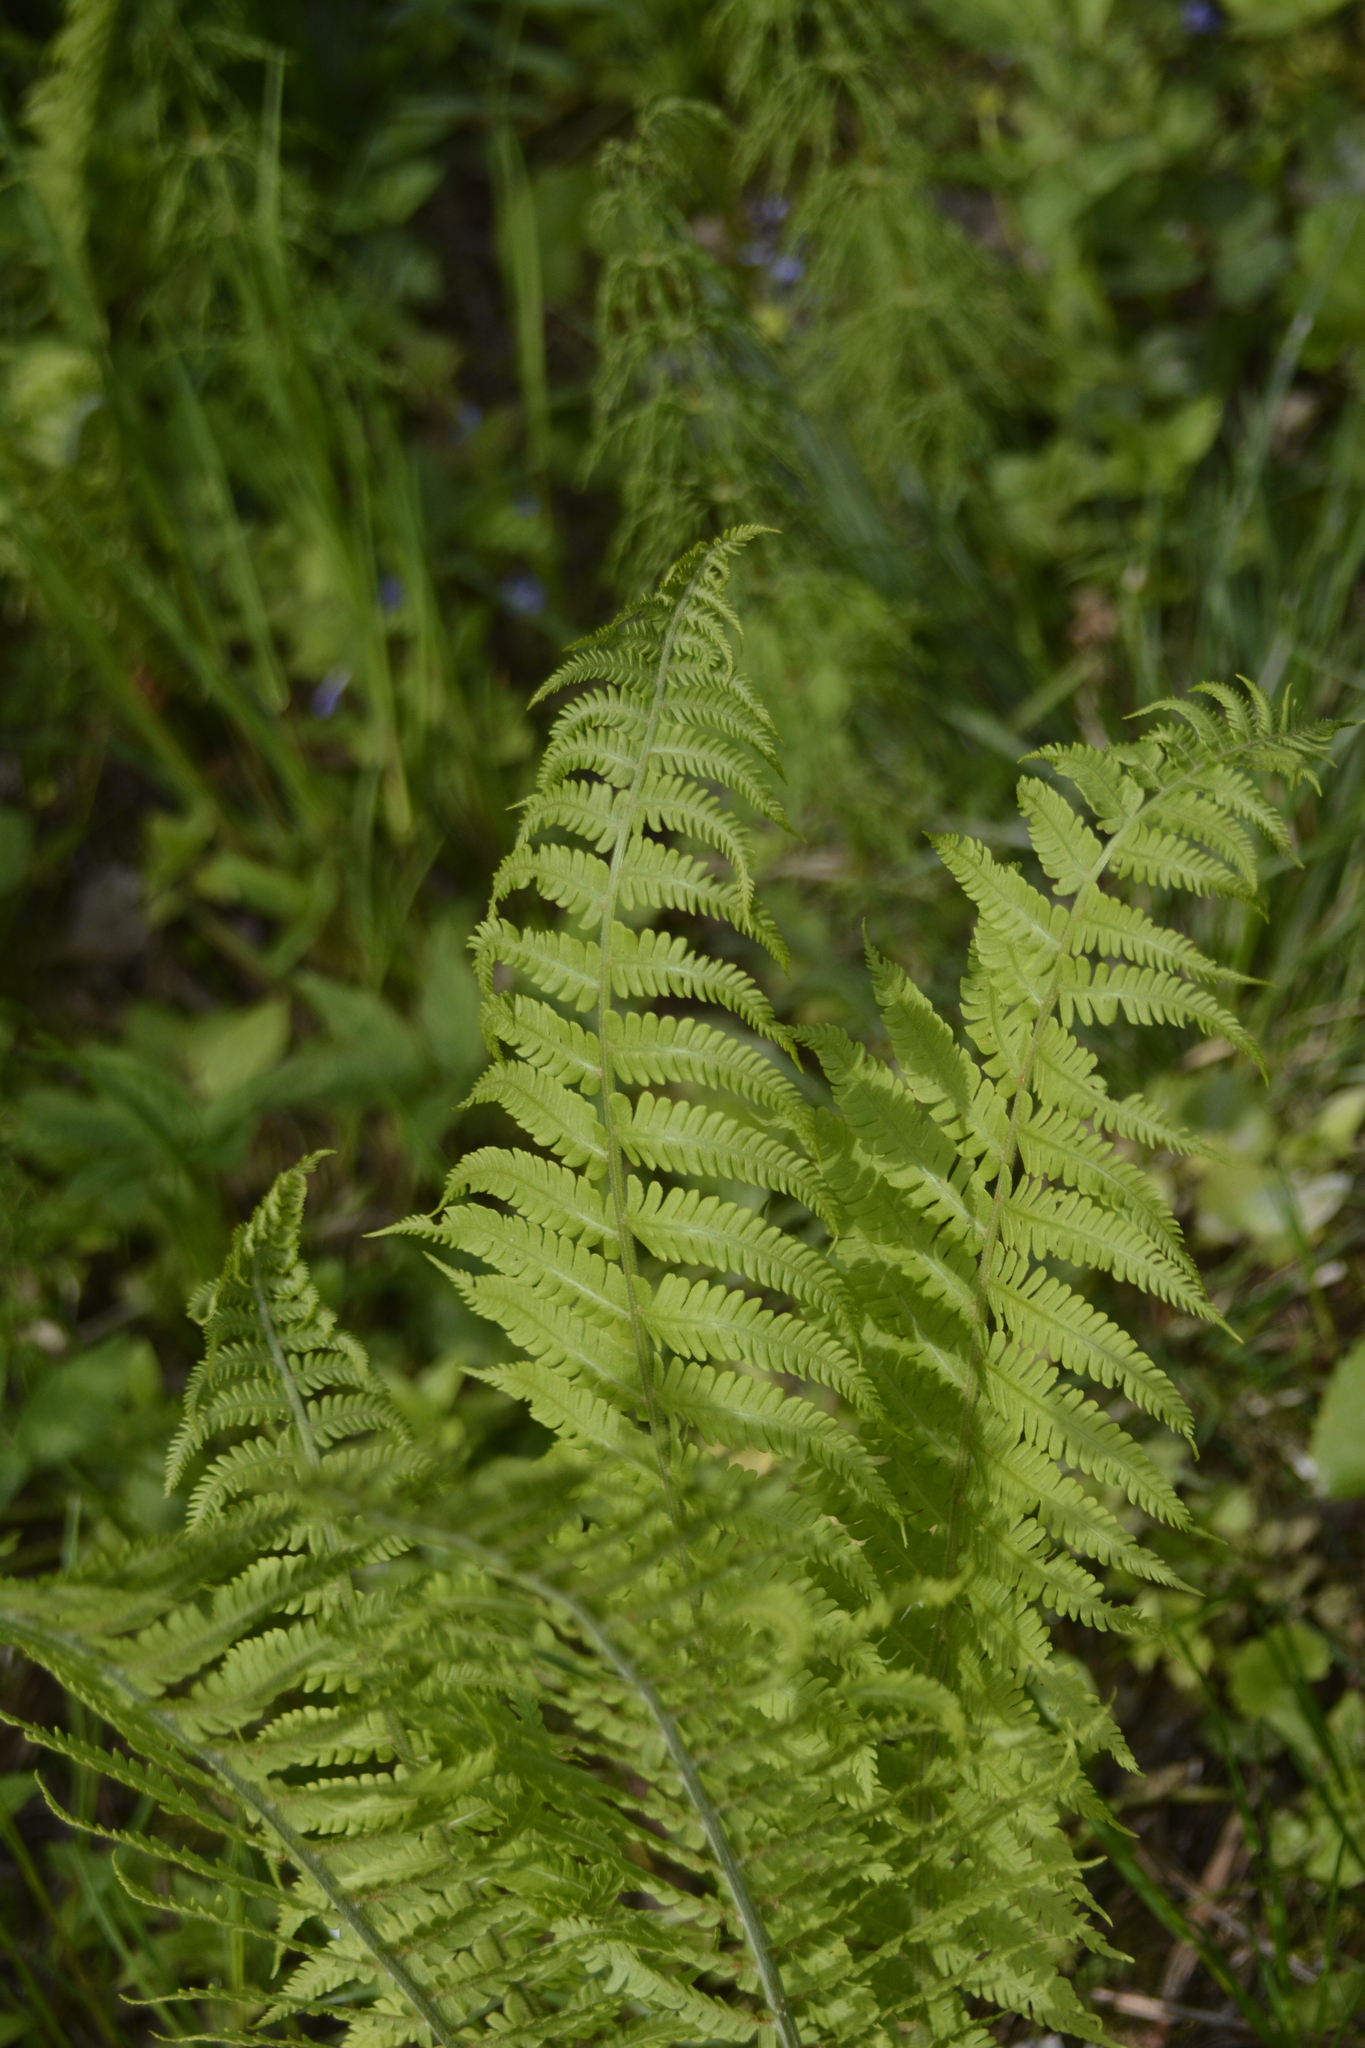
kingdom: Plantae
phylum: Tracheophyta
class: Polypodiopsida
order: Polypodiales
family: Onocleaceae
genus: Matteuccia
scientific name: Matteuccia struthiopteris
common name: Ostrich fern
